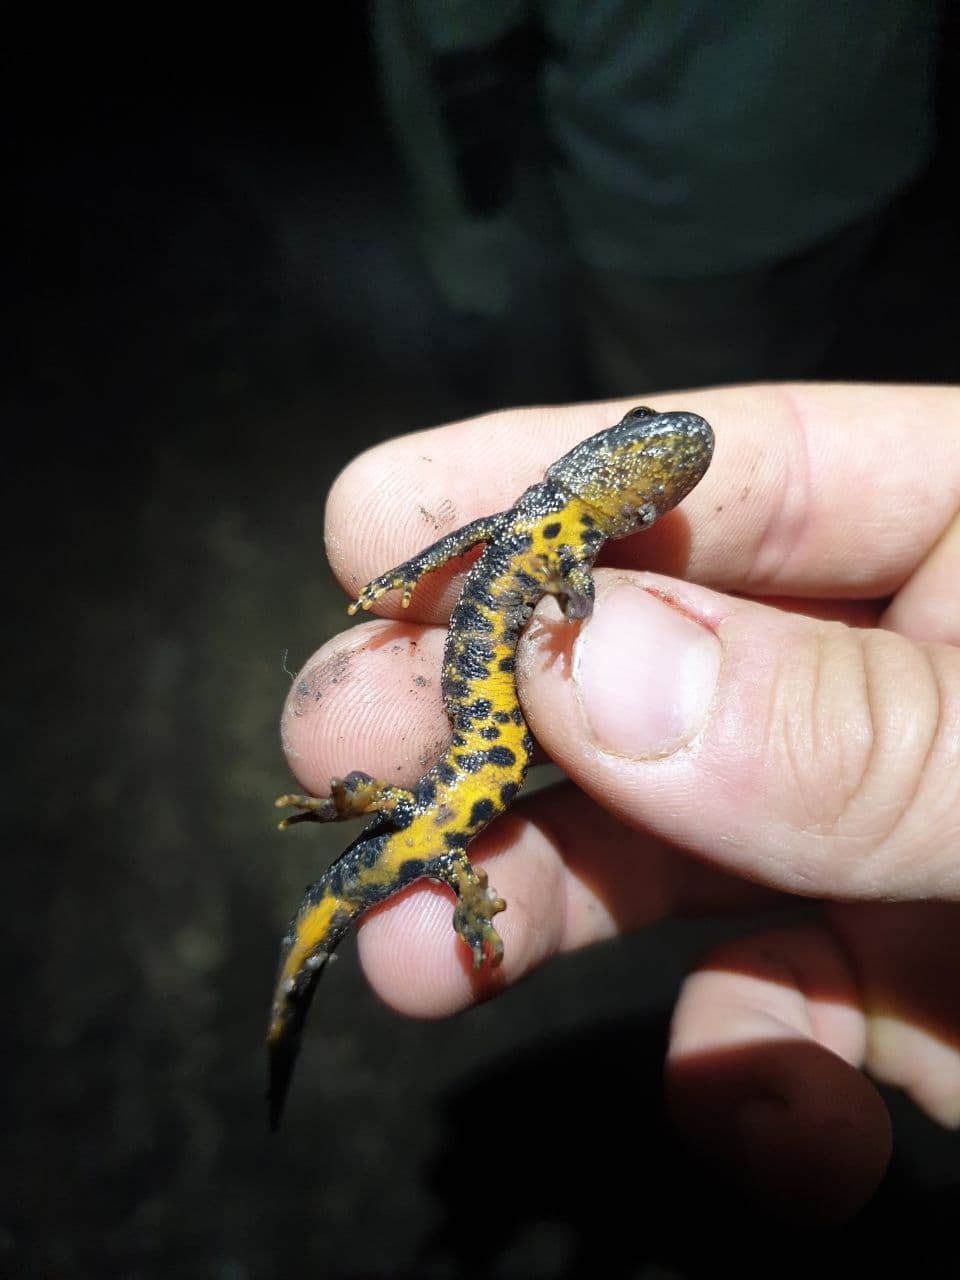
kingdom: Animalia
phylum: Chordata
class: Amphibia
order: Caudata
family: Salamandridae
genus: Triturus
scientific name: Triturus cristatus
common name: Crested newt
